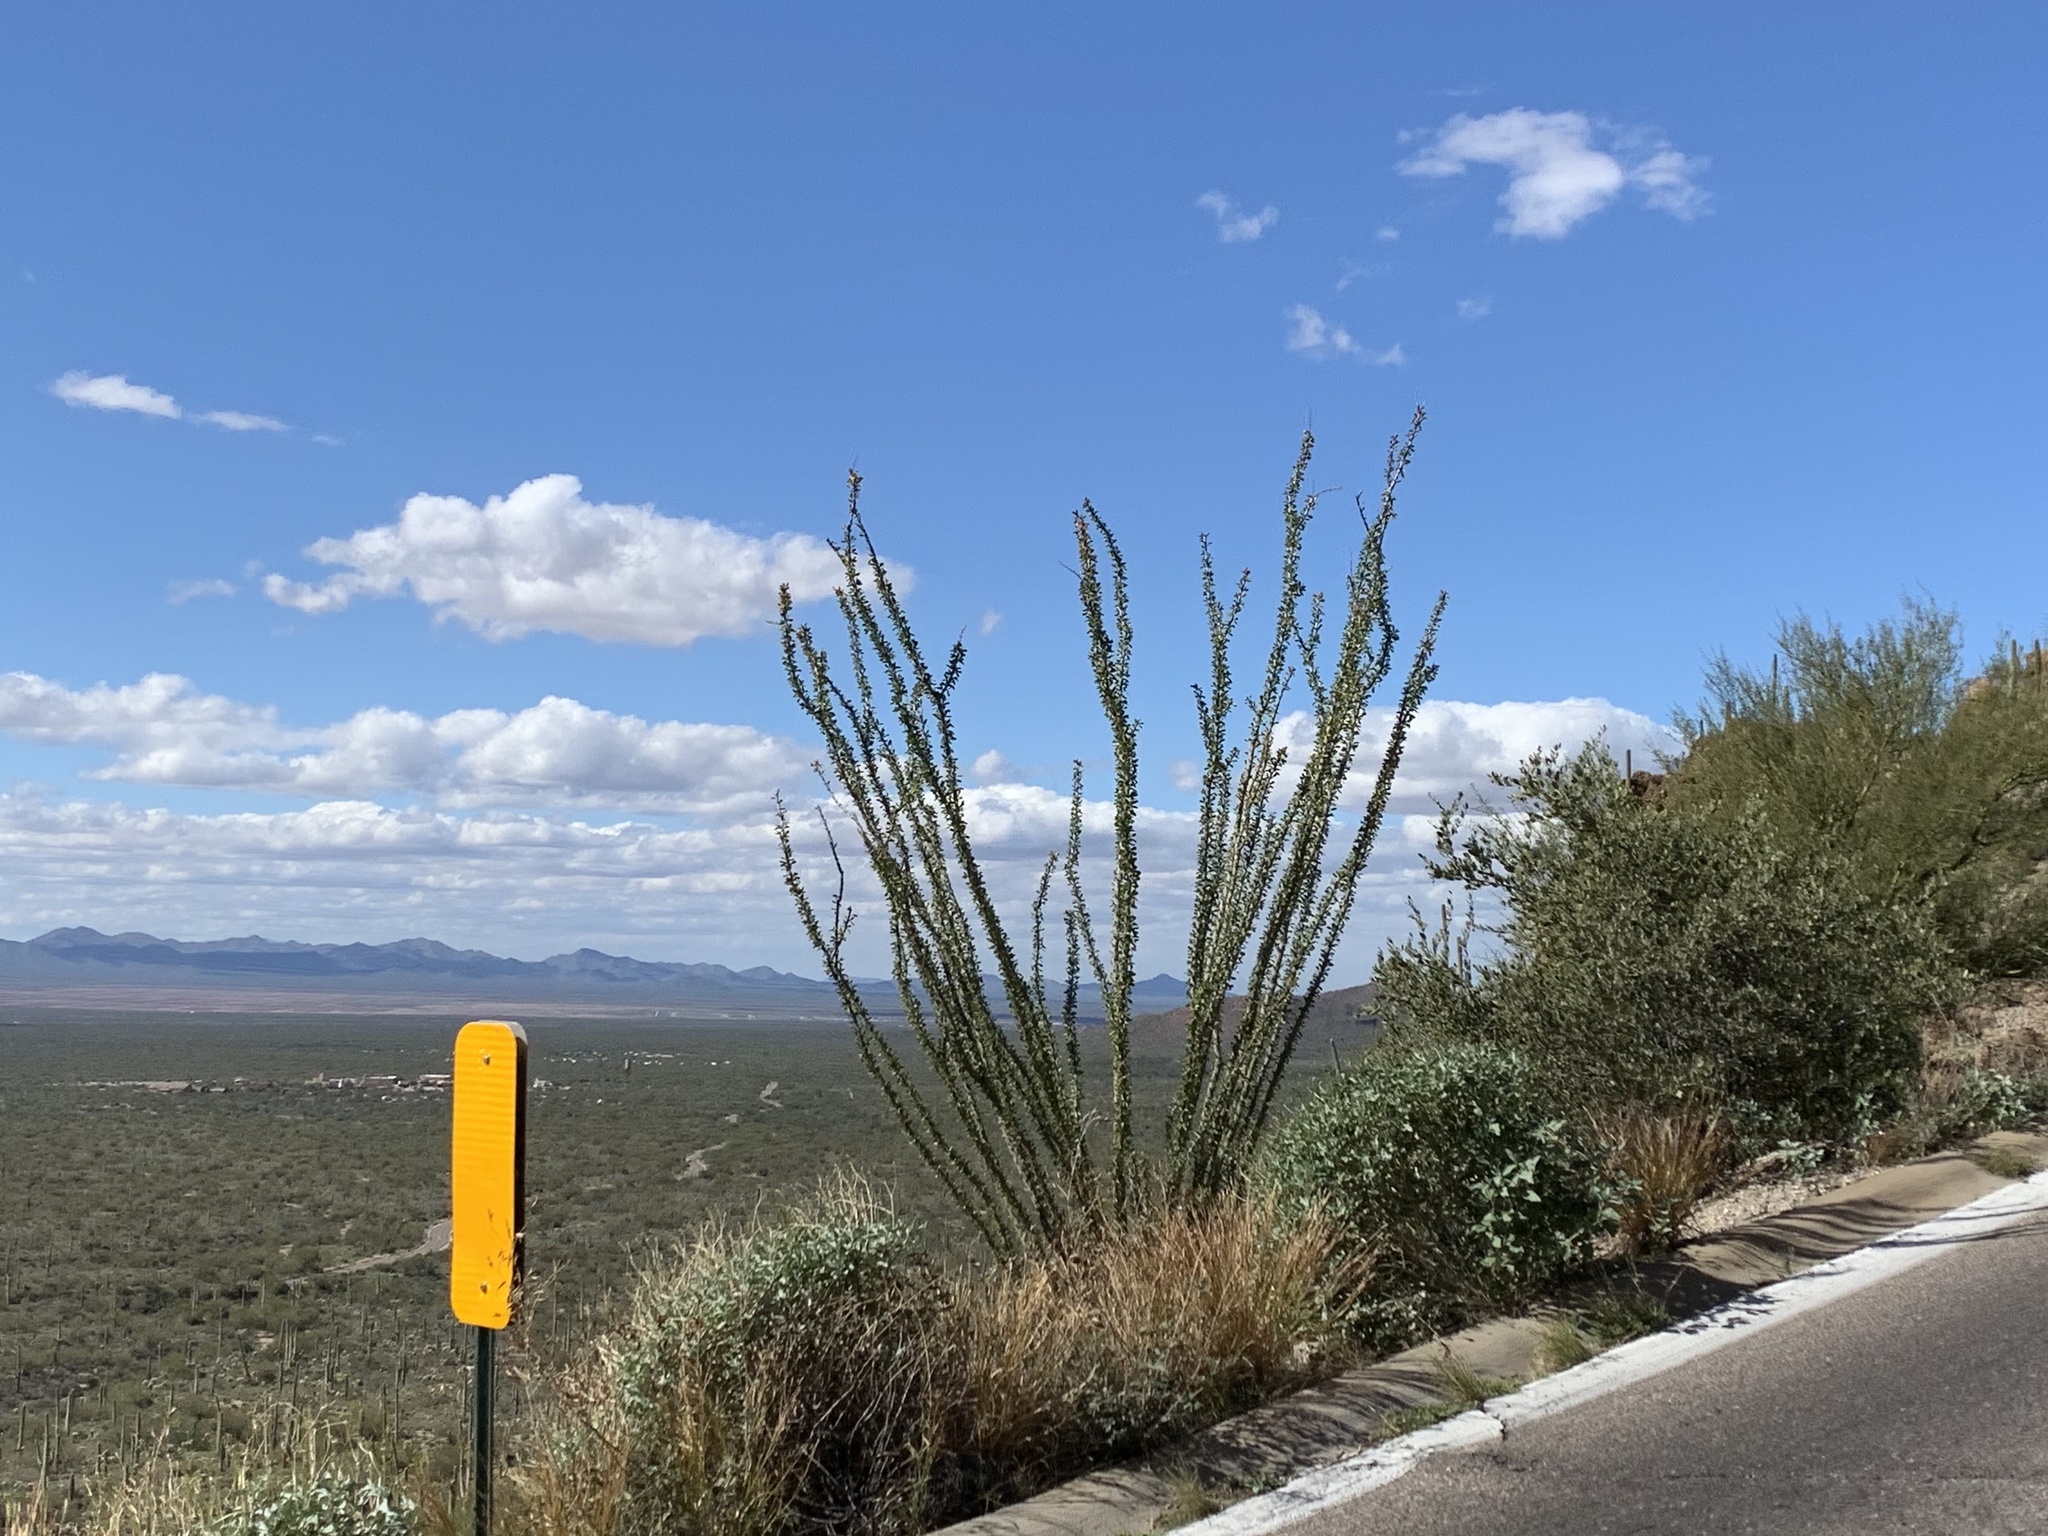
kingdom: Plantae
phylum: Tracheophyta
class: Magnoliopsida
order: Ericales
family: Fouquieriaceae
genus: Fouquieria
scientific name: Fouquieria splendens
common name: Vine-cactus
